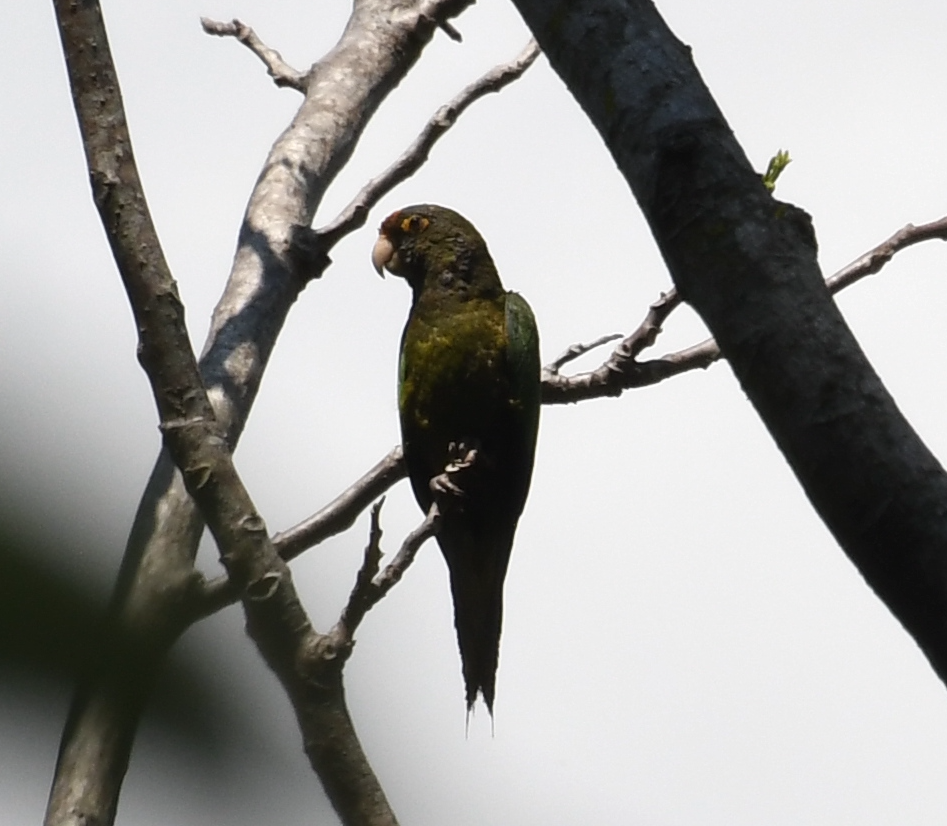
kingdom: Animalia
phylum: Chordata
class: Aves
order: Psittaciformes
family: Psittacidae
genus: Aratinga
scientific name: Aratinga canicularis
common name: Orange-fronted parakeet
